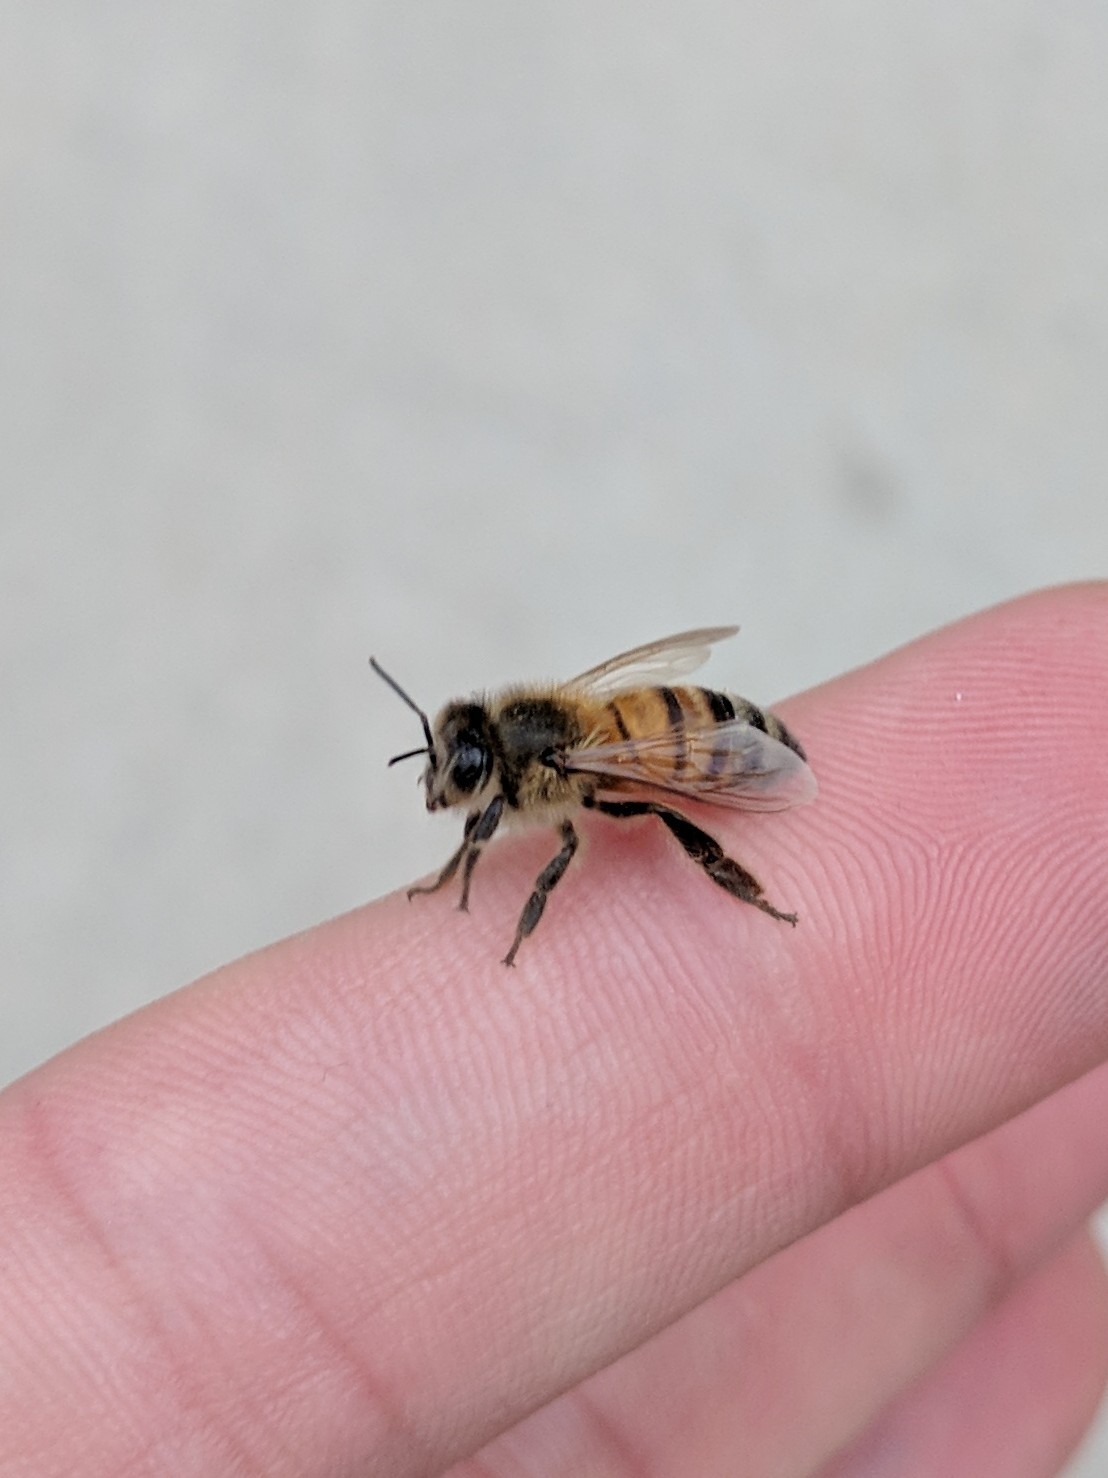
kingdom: Animalia
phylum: Arthropoda
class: Insecta
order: Hymenoptera
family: Apidae
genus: Apis
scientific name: Apis mellifera
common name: Honey bee
